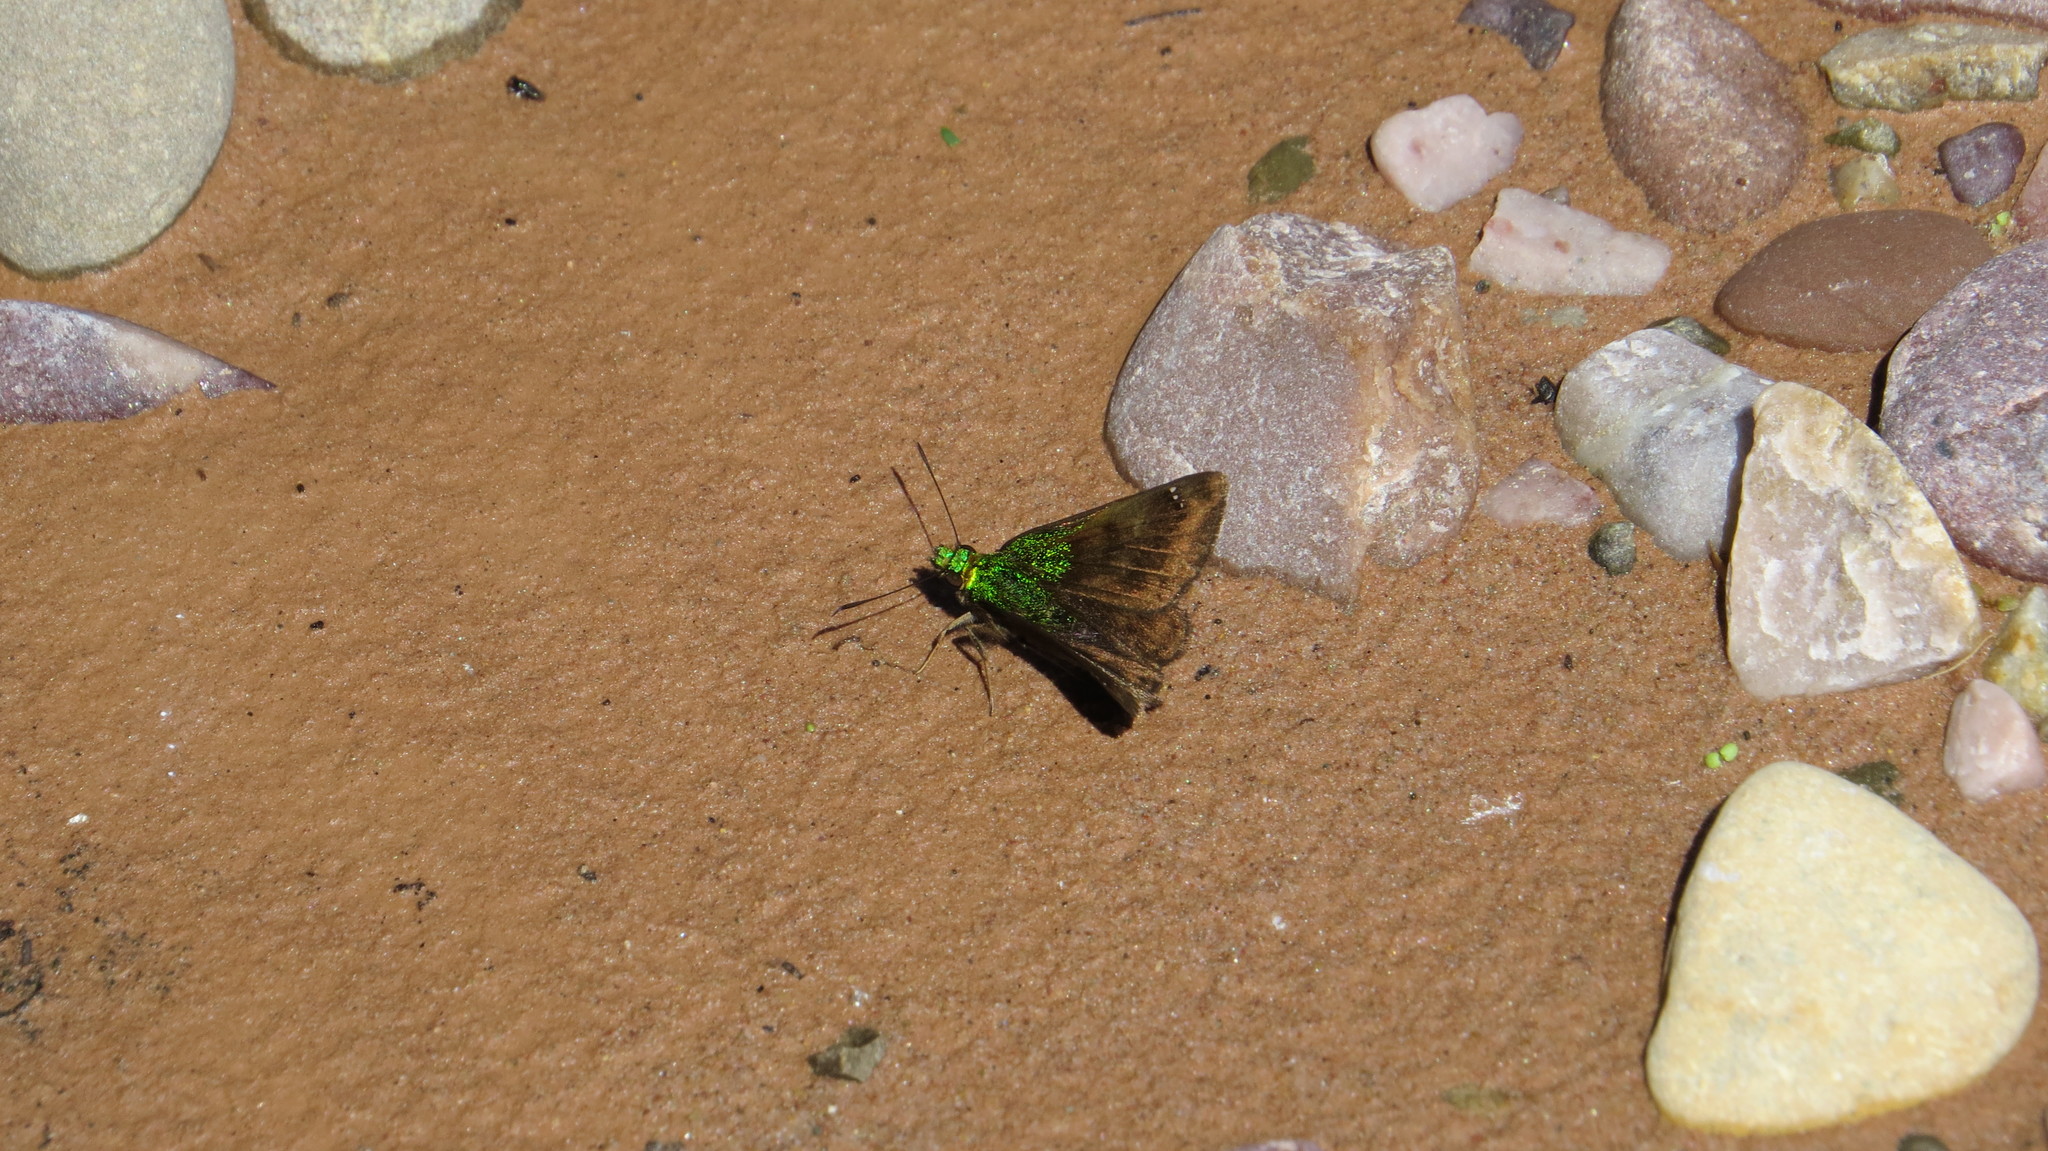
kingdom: Animalia
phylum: Arthropoda
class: Insecta
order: Lepidoptera
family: Hesperiidae
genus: Gorgopas
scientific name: Gorgopas trochilus
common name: Green-shouldered sootywing
